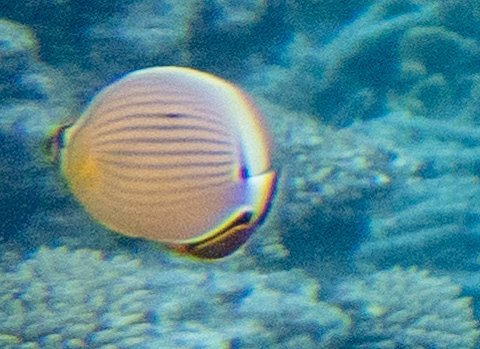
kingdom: Animalia
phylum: Chordata
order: Perciformes
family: Chaetodontidae
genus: Chaetodon
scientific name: Chaetodon lunulatus
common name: Redfin butterflyfish
